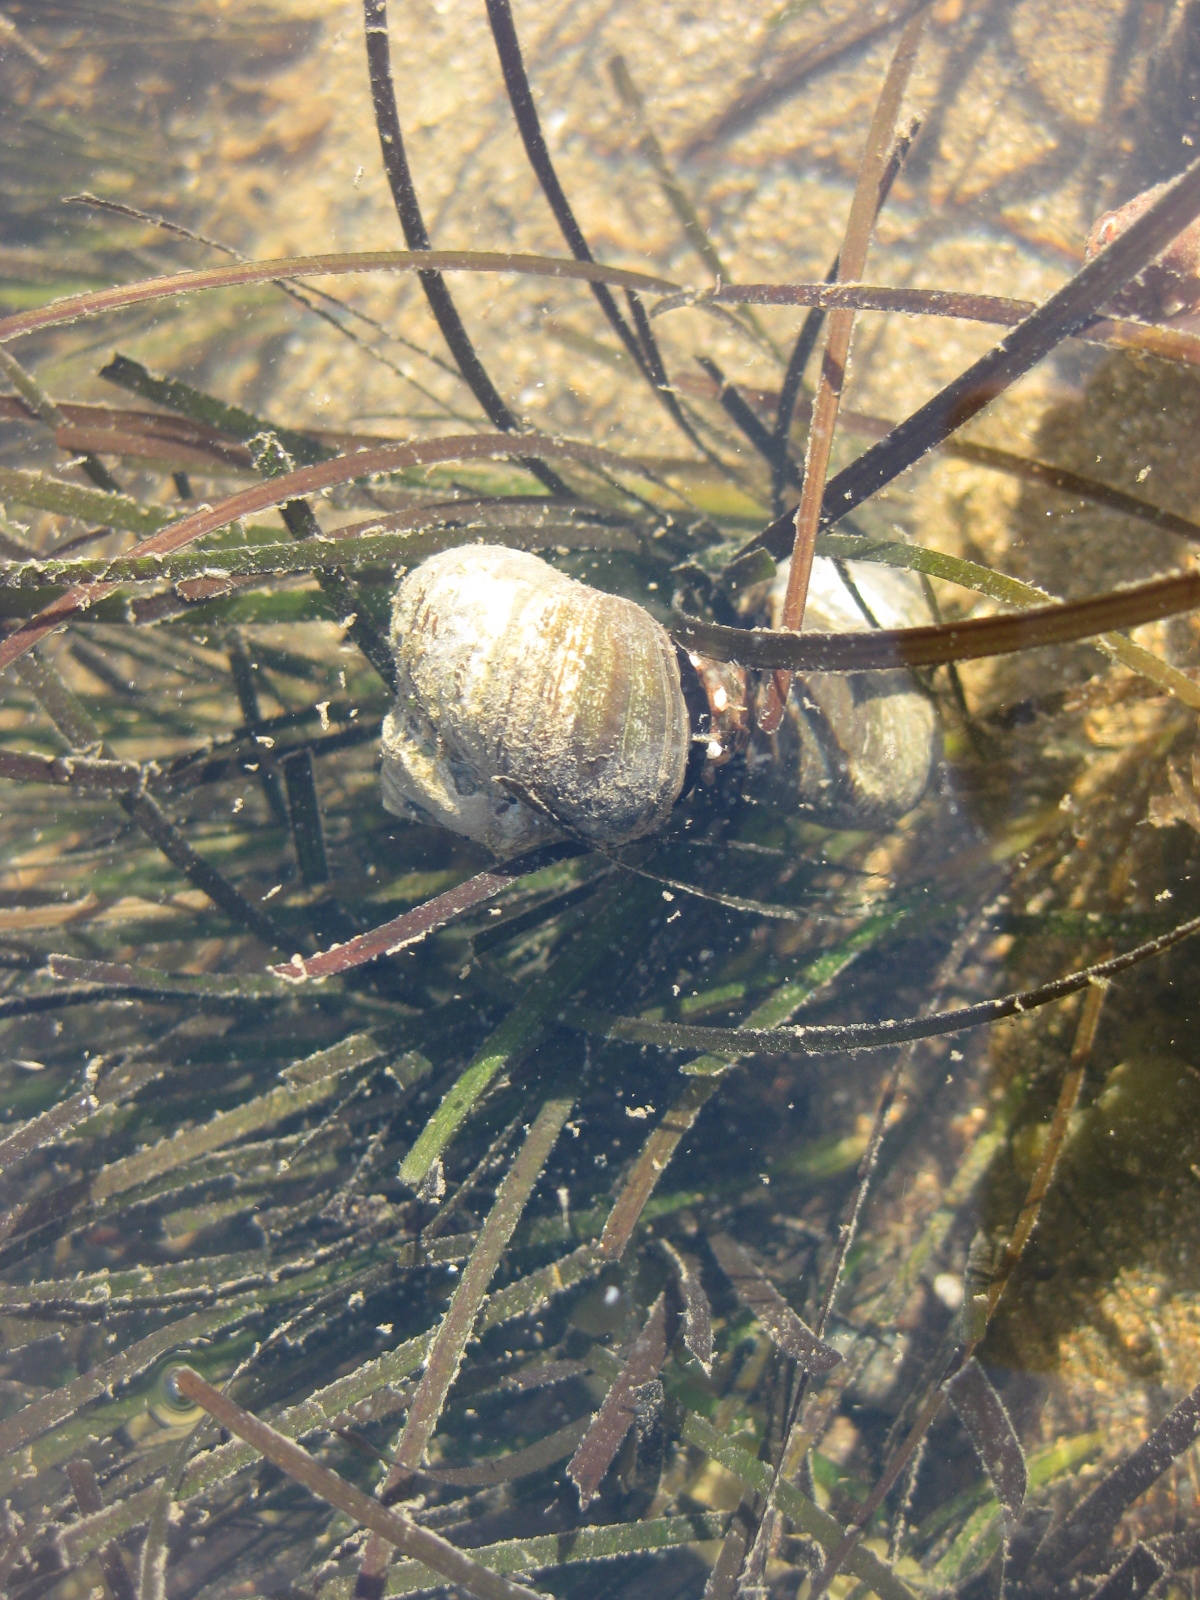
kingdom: Animalia
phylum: Mollusca
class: Gastropoda
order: Trochida
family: Turbinidae
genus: Lunella
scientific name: Lunella smaragda
